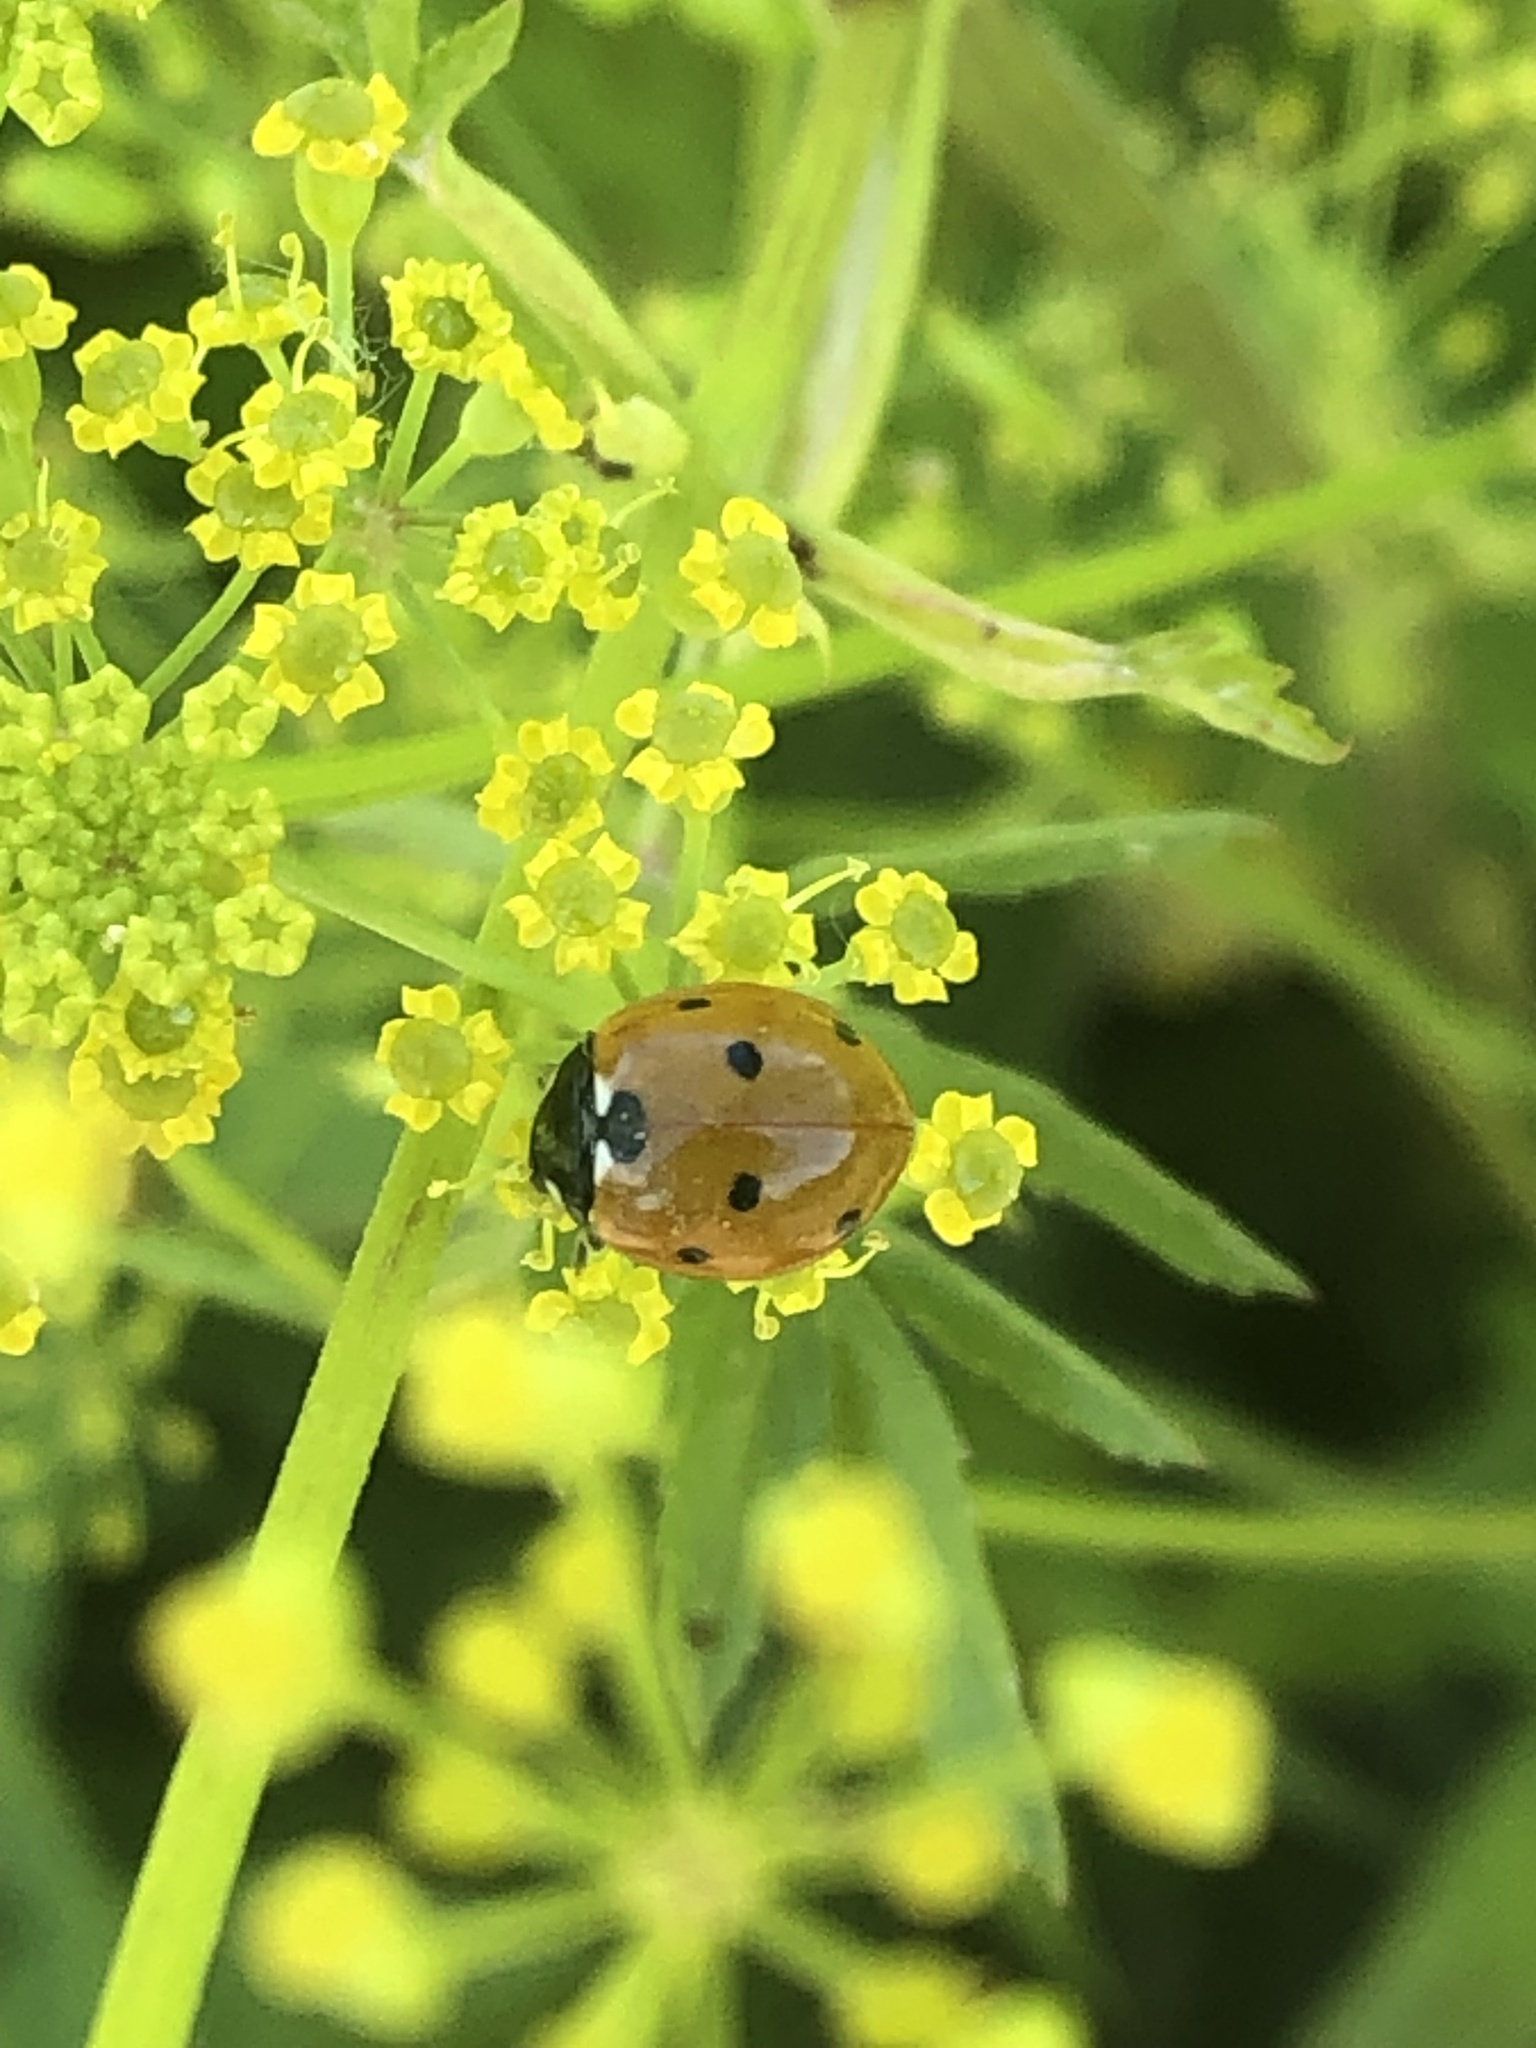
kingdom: Animalia
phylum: Arthropoda
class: Insecta
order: Coleoptera
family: Coccinellidae
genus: Coccinella
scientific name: Coccinella septempunctata
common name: Sevenspotted lady beetle
